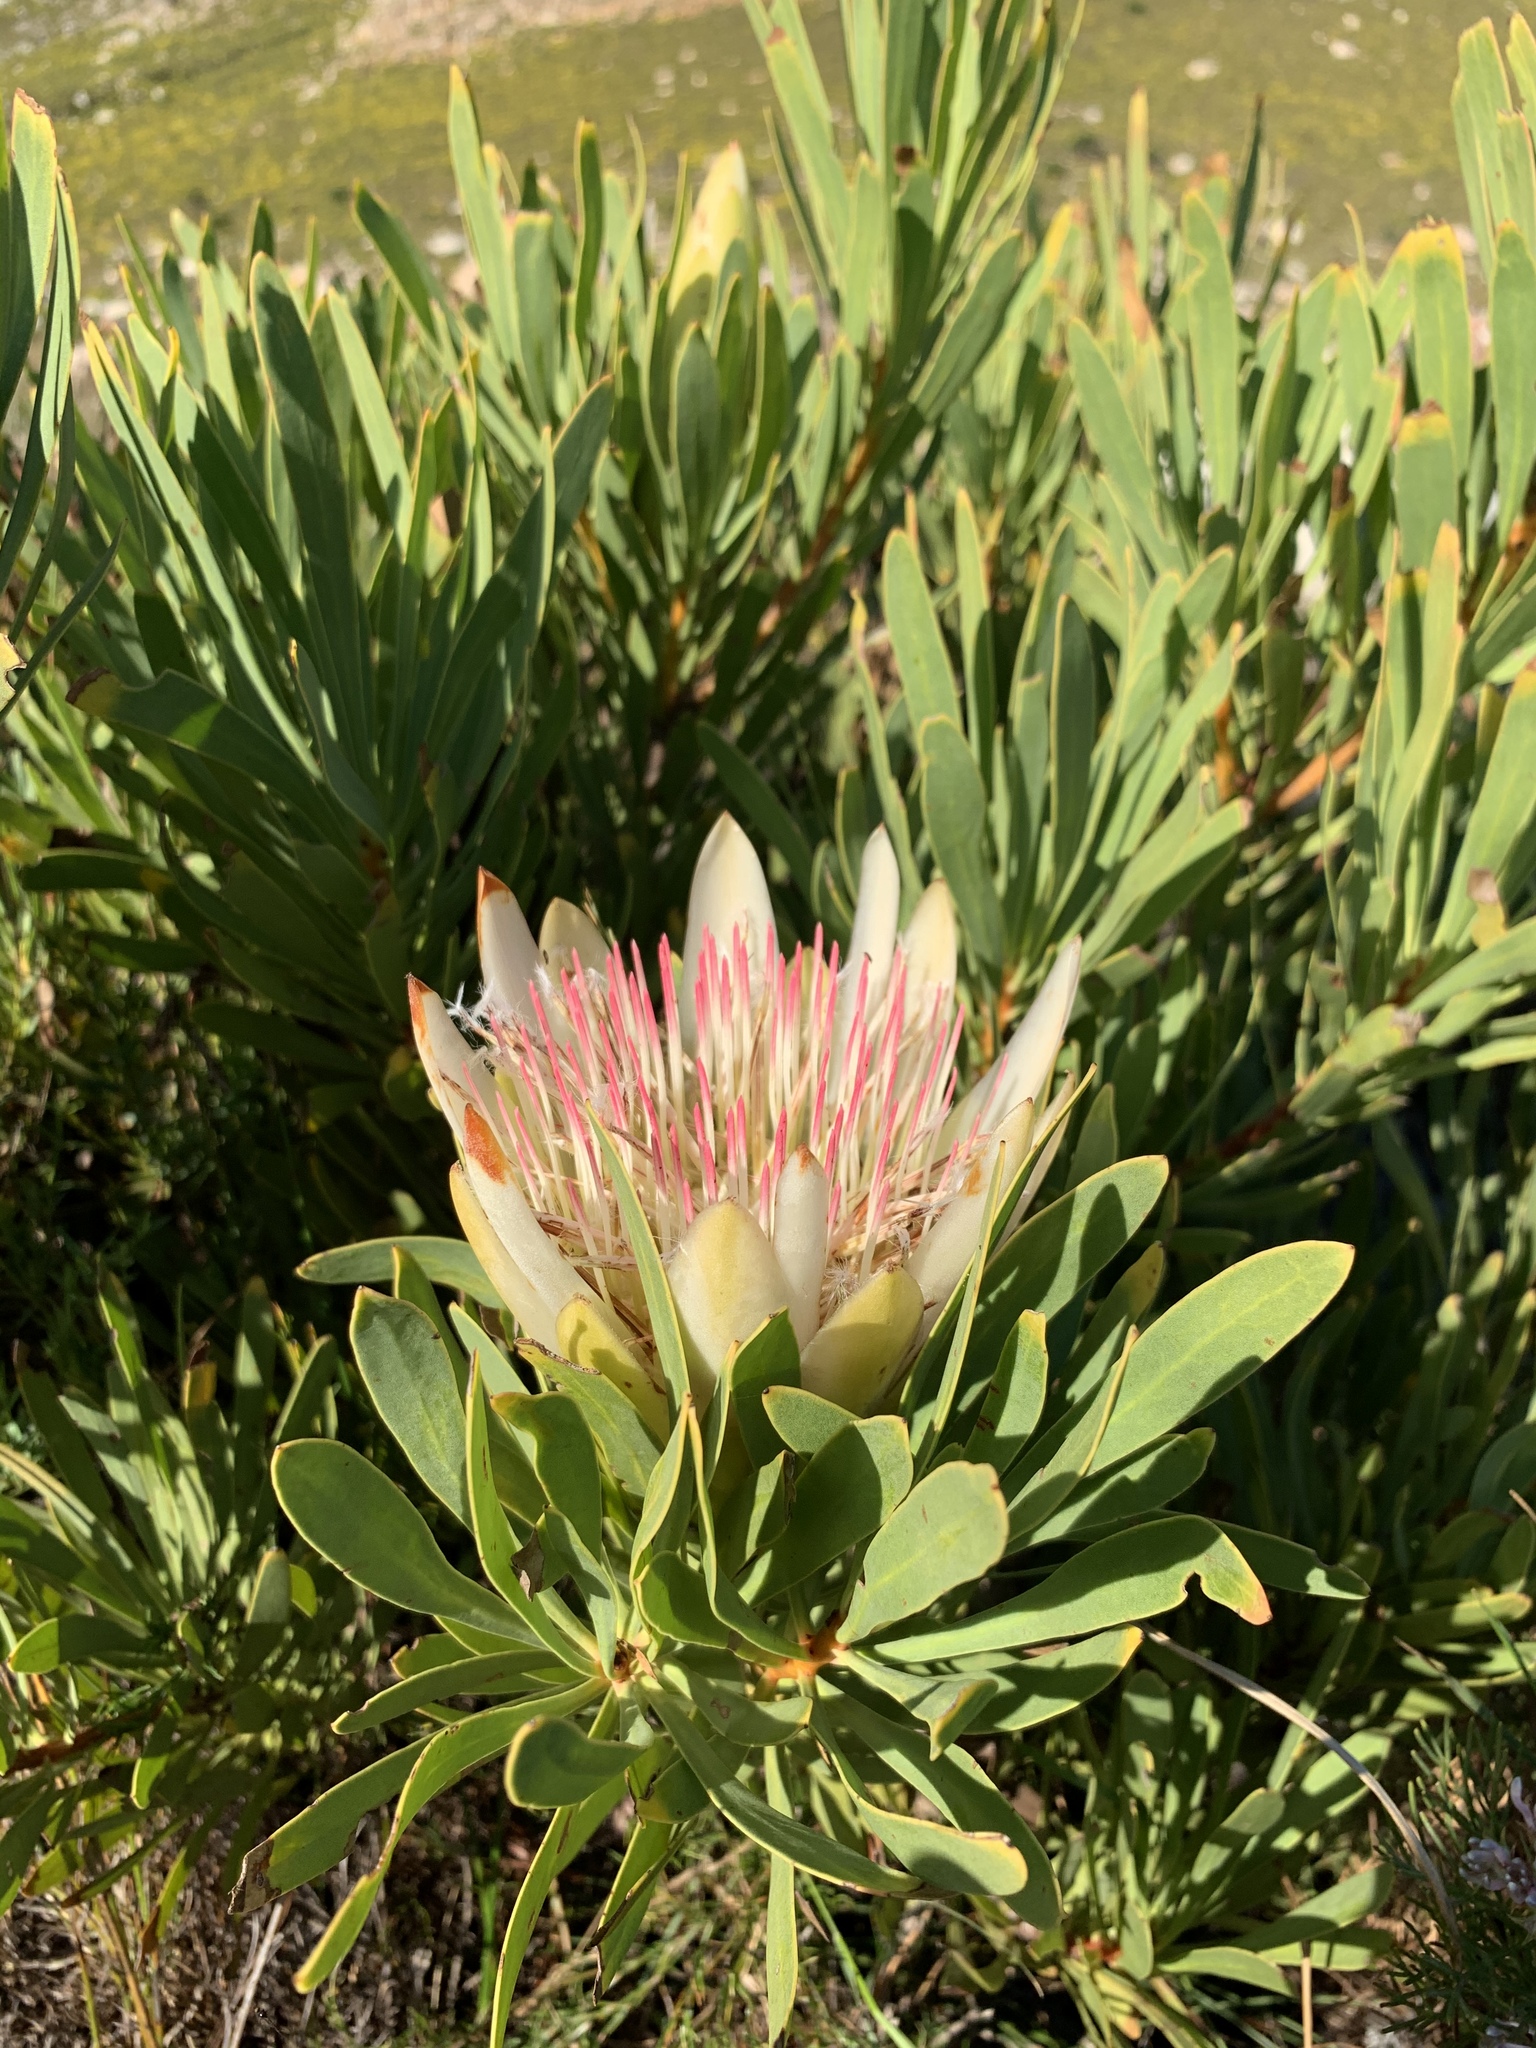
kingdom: Plantae
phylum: Tracheophyta
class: Magnoliopsida
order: Proteales
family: Proteaceae
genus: Protea
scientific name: Protea repens
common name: Sugarbush
